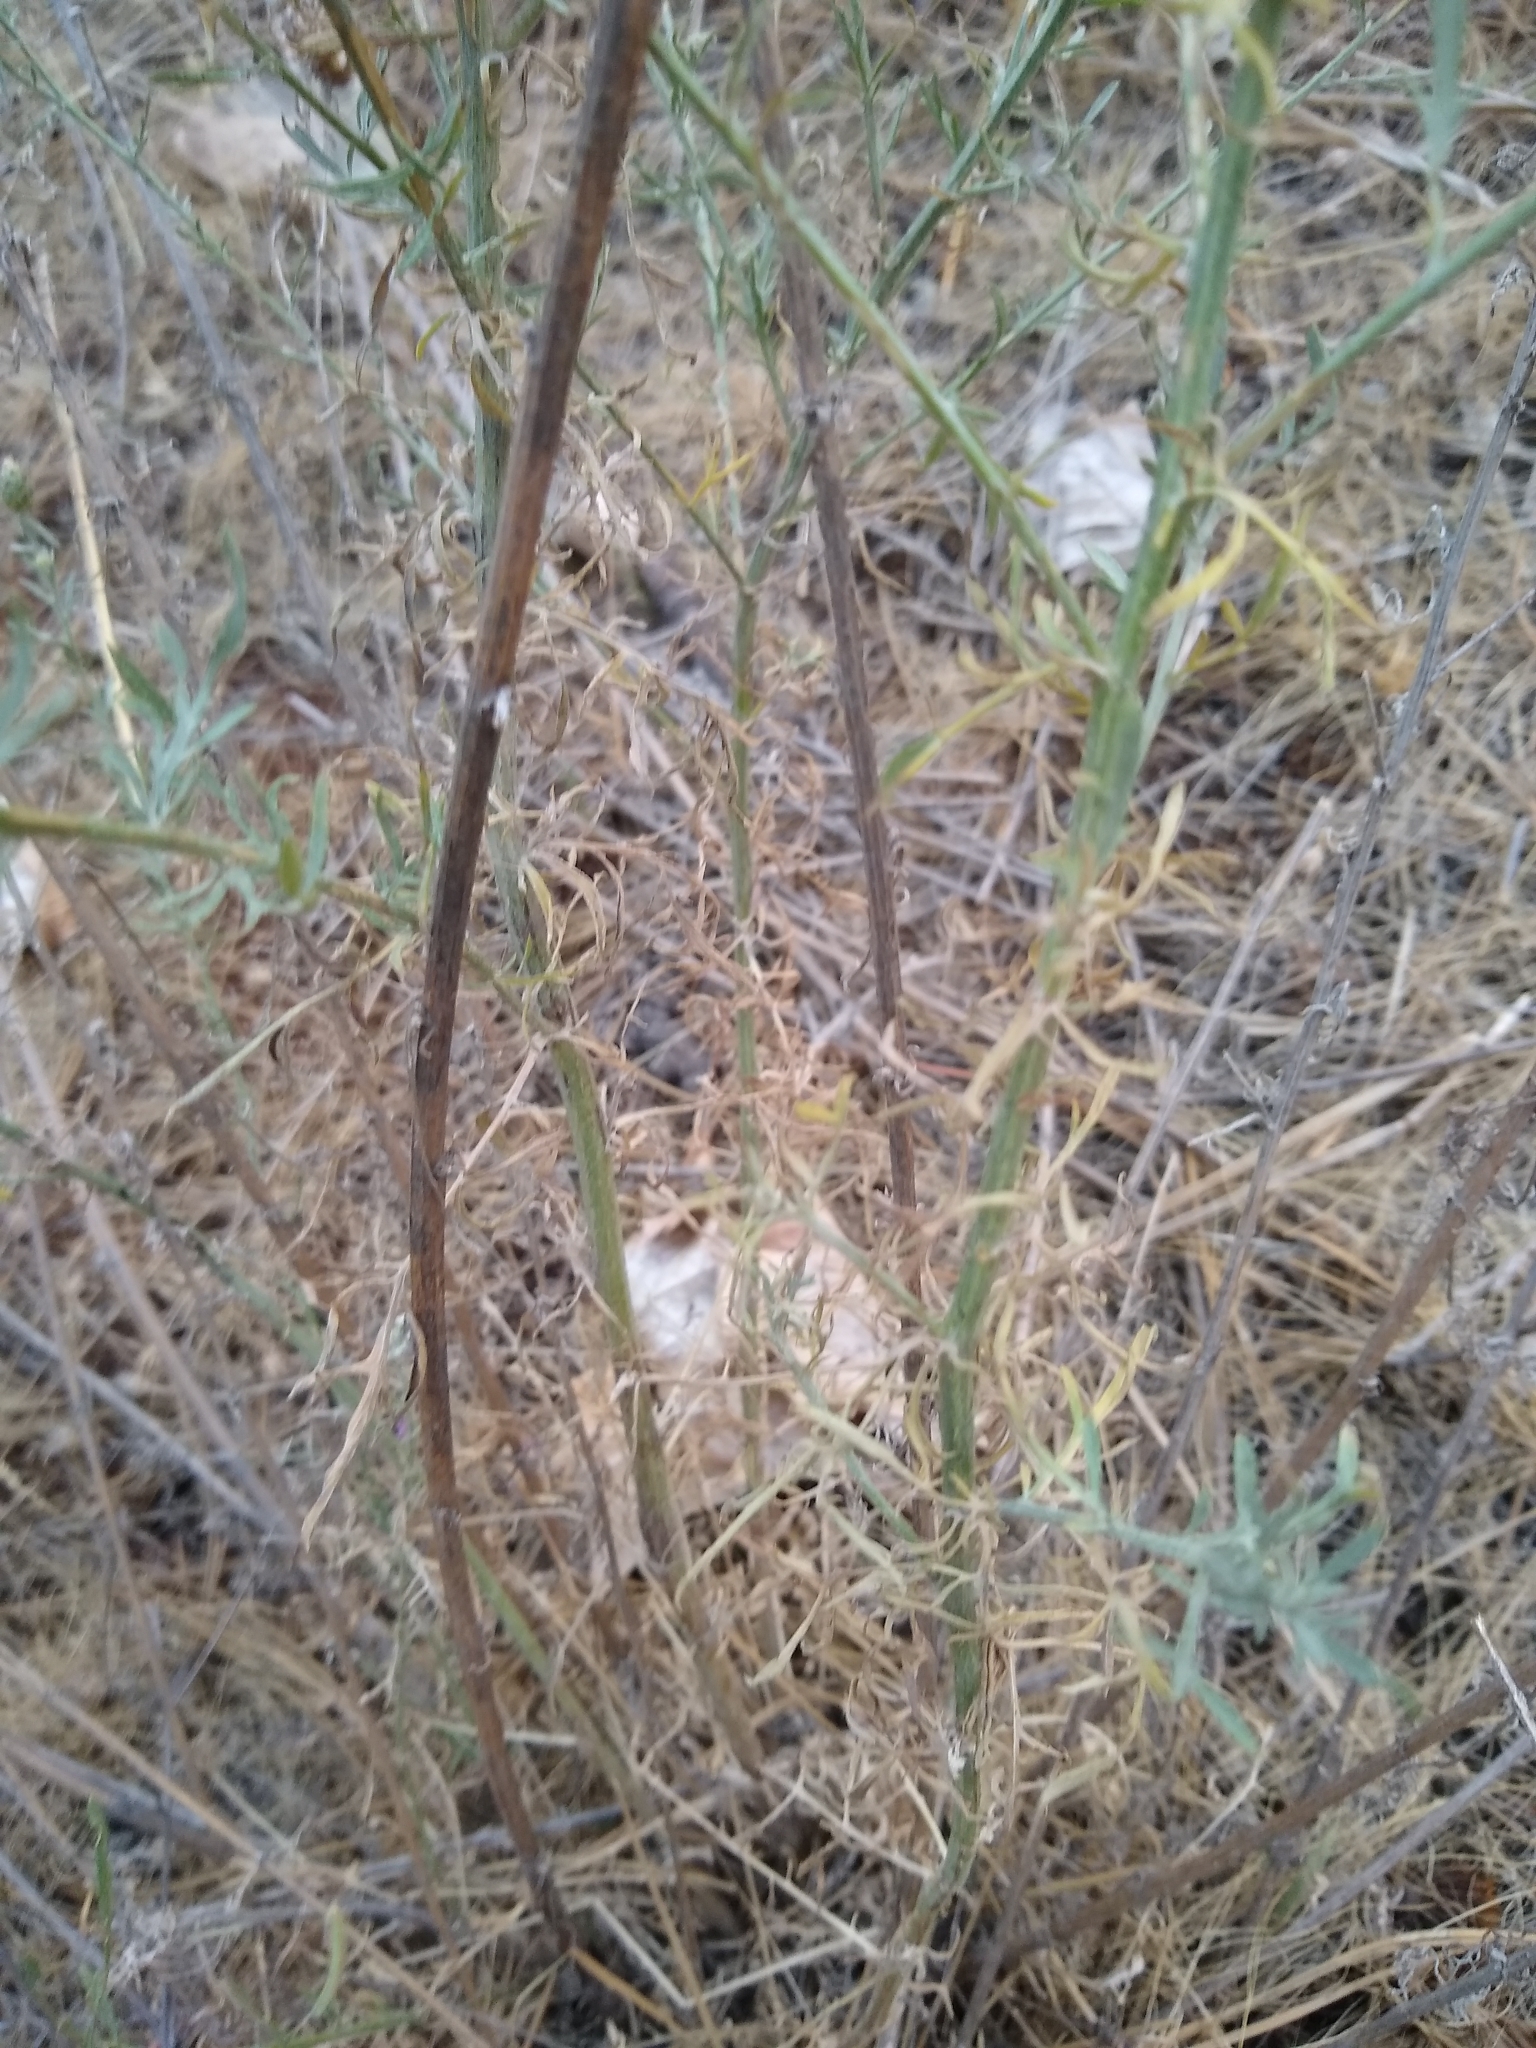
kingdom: Plantae
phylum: Tracheophyta
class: Magnoliopsida
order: Asterales
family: Asteraceae
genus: Centaurea
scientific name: Centaurea stoebe
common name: Spotted knapweed
